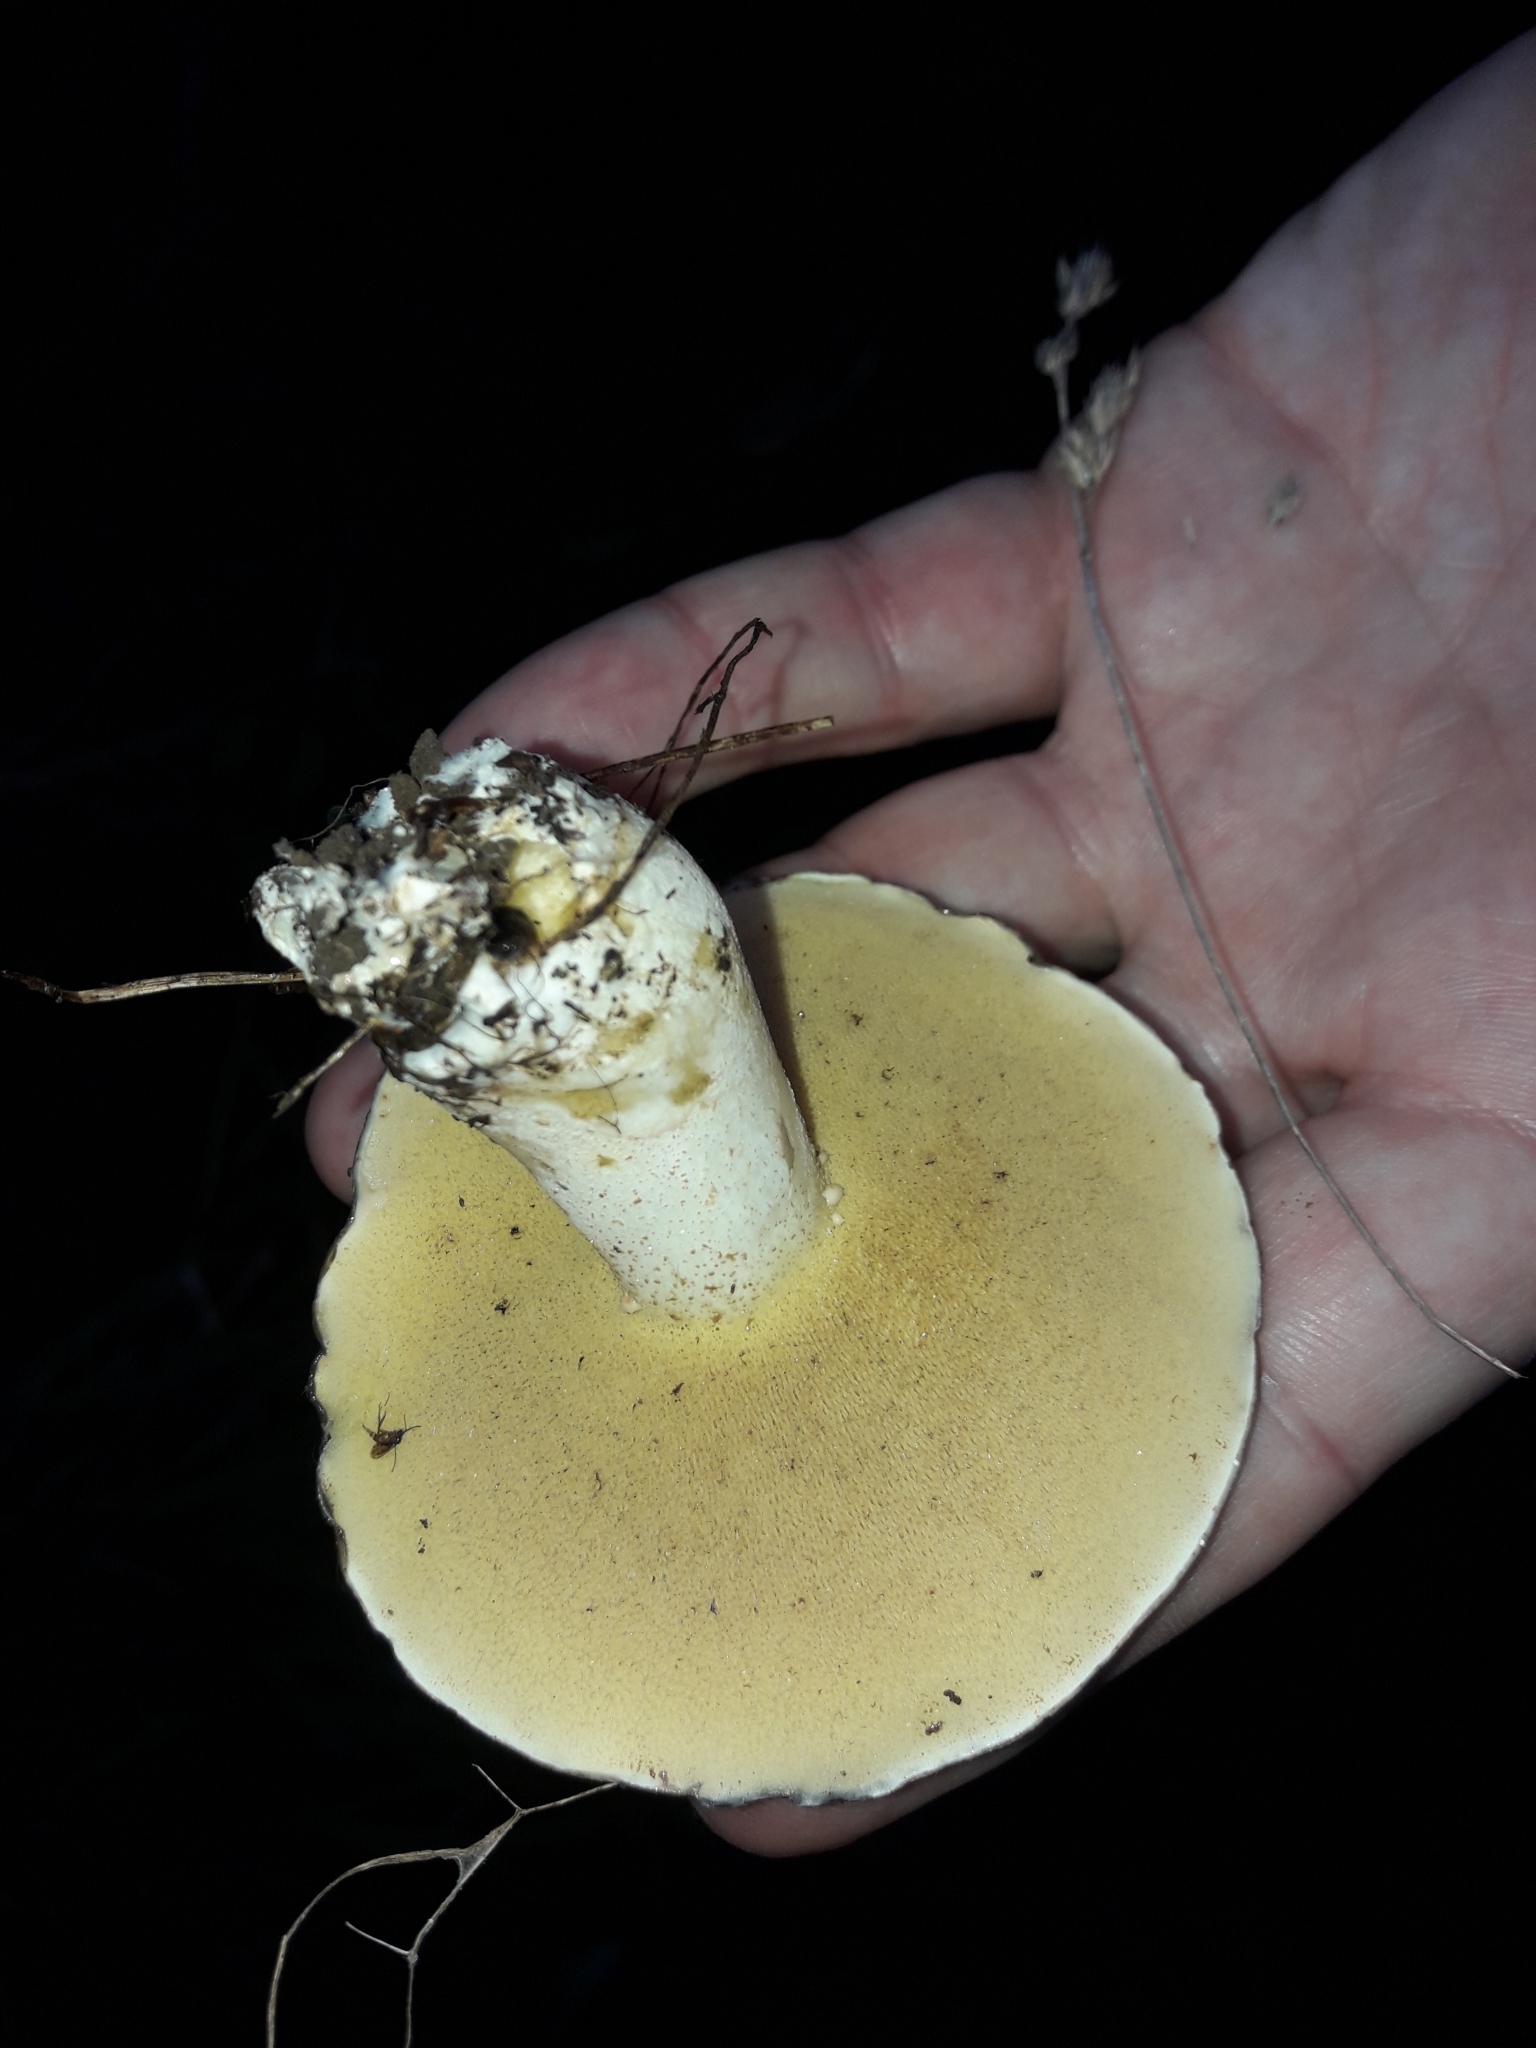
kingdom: Fungi
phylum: Basidiomycota
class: Agaricomycetes
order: Boletales
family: Suillaceae
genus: Suillus
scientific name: Suillus pungens
